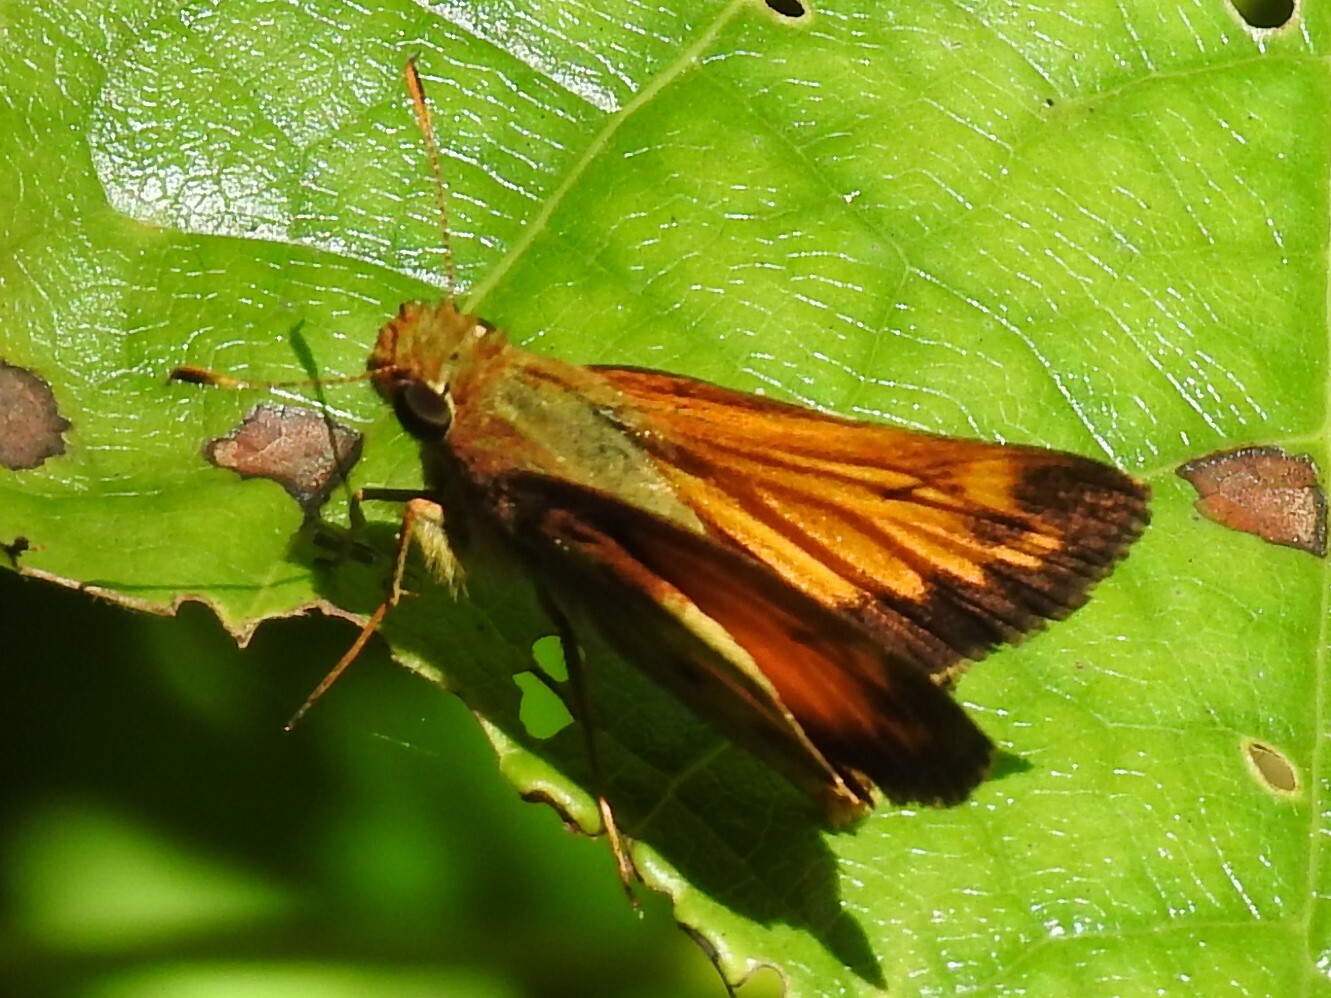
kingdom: Animalia
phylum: Arthropoda
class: Insecta
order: Lepidoptera
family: Hesperiidae
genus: Lon
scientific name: Lon zabulon
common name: Zabulon skipper
